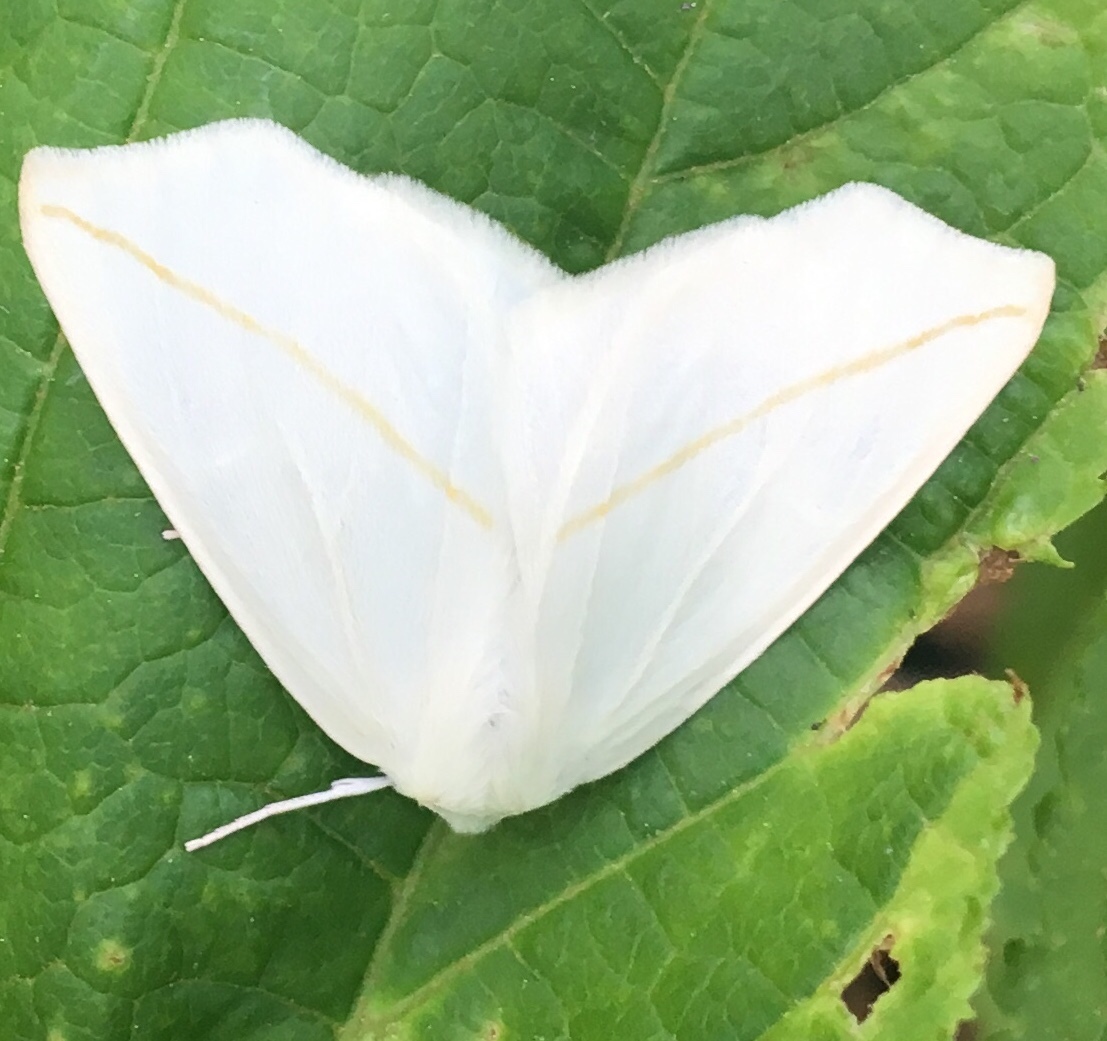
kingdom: Animalia
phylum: Arthropoda
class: Insecta
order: Lepidoptera
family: Geometridae
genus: Tetracis
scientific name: Tetracis cachexiata
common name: White slant-line
